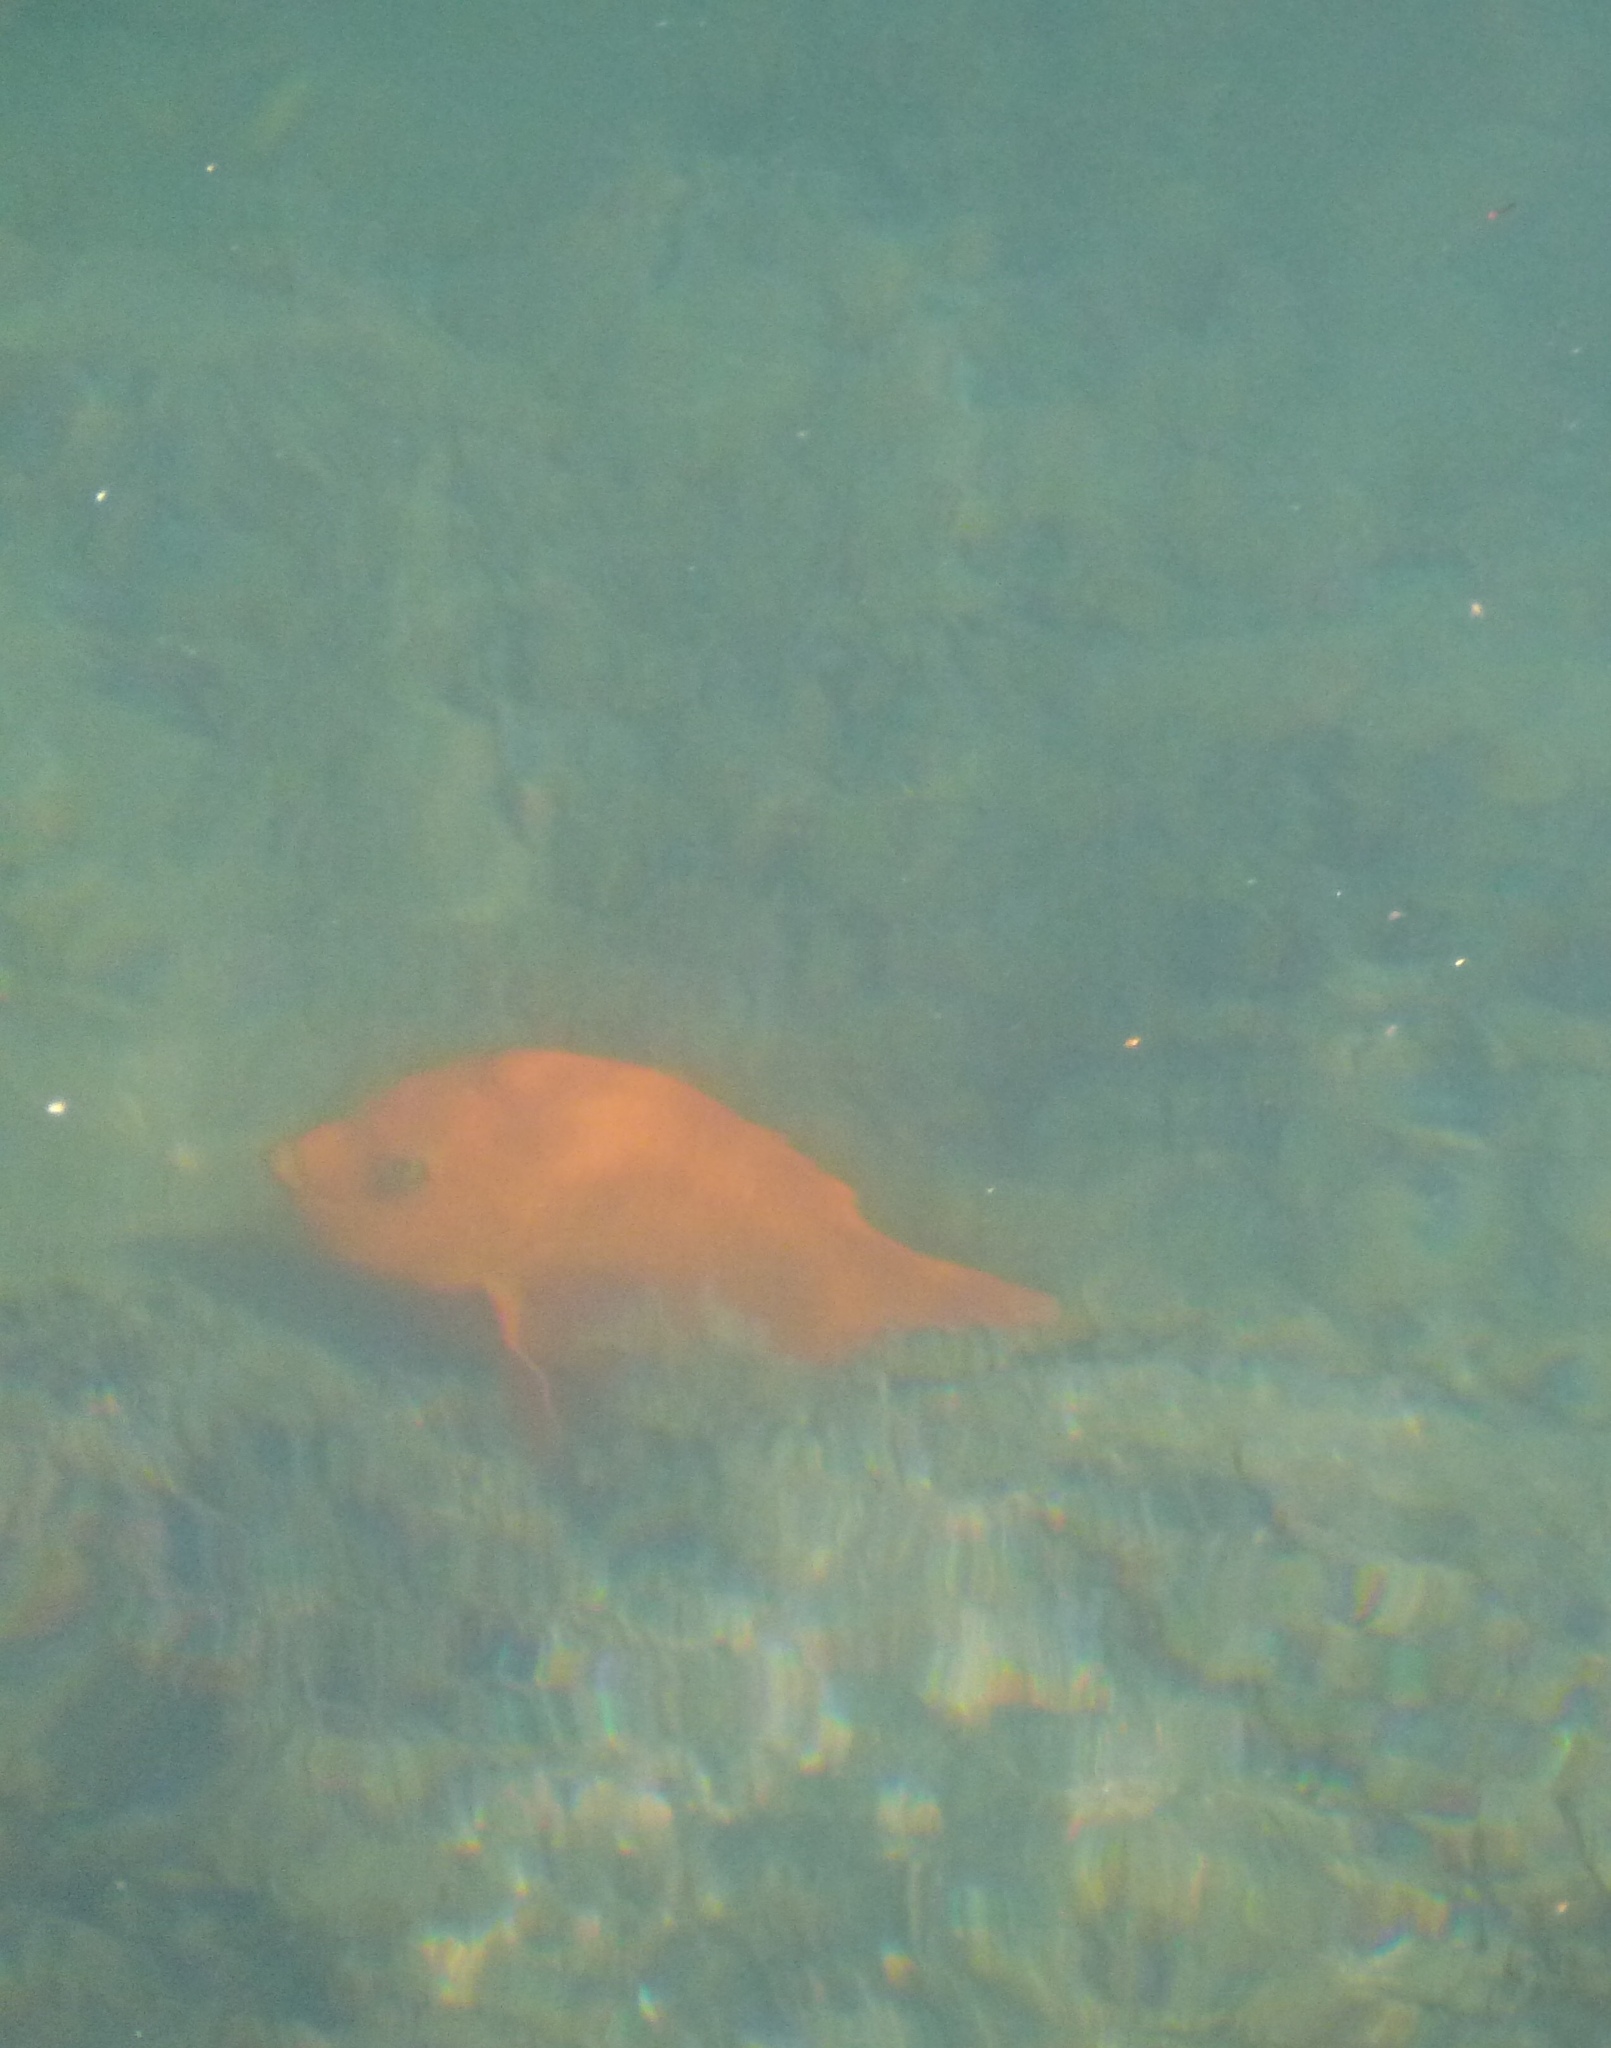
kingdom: Animalia
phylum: Chordata
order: Perciformes
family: Pomacentridae
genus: Hypsypops
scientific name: Hypsypops rubicundus
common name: Garibaldi
